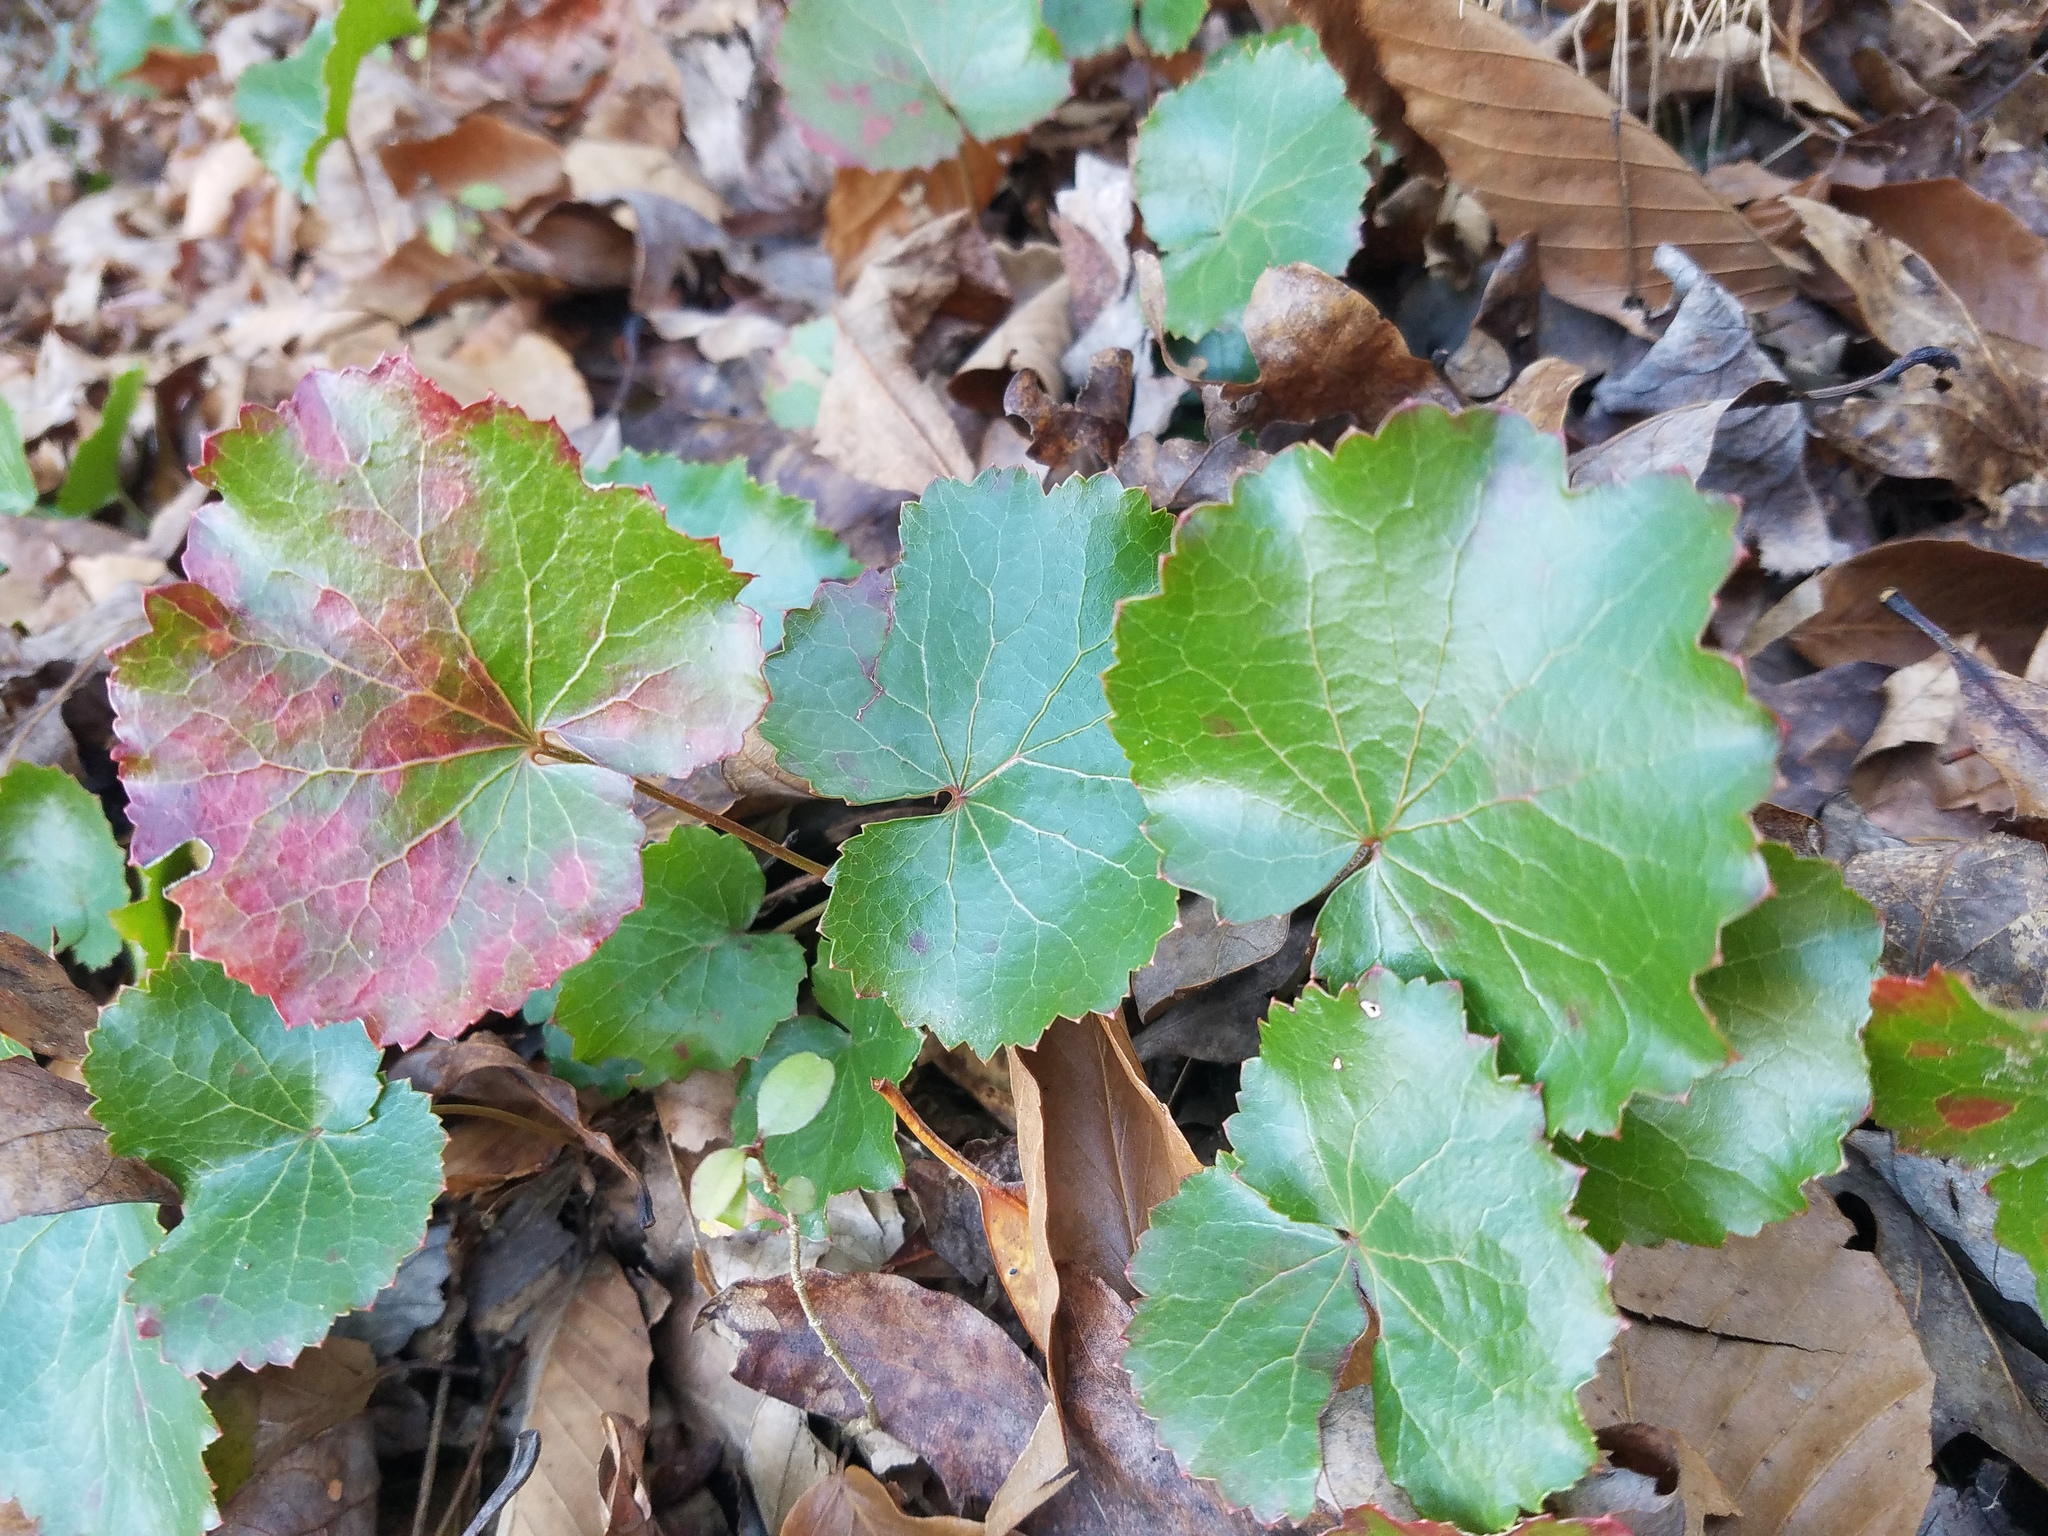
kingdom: Plantae
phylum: Tracheophyta
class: Magnoliopsida
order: Ericales
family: Diapensiaceae
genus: Galax
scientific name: Galax urceolata
